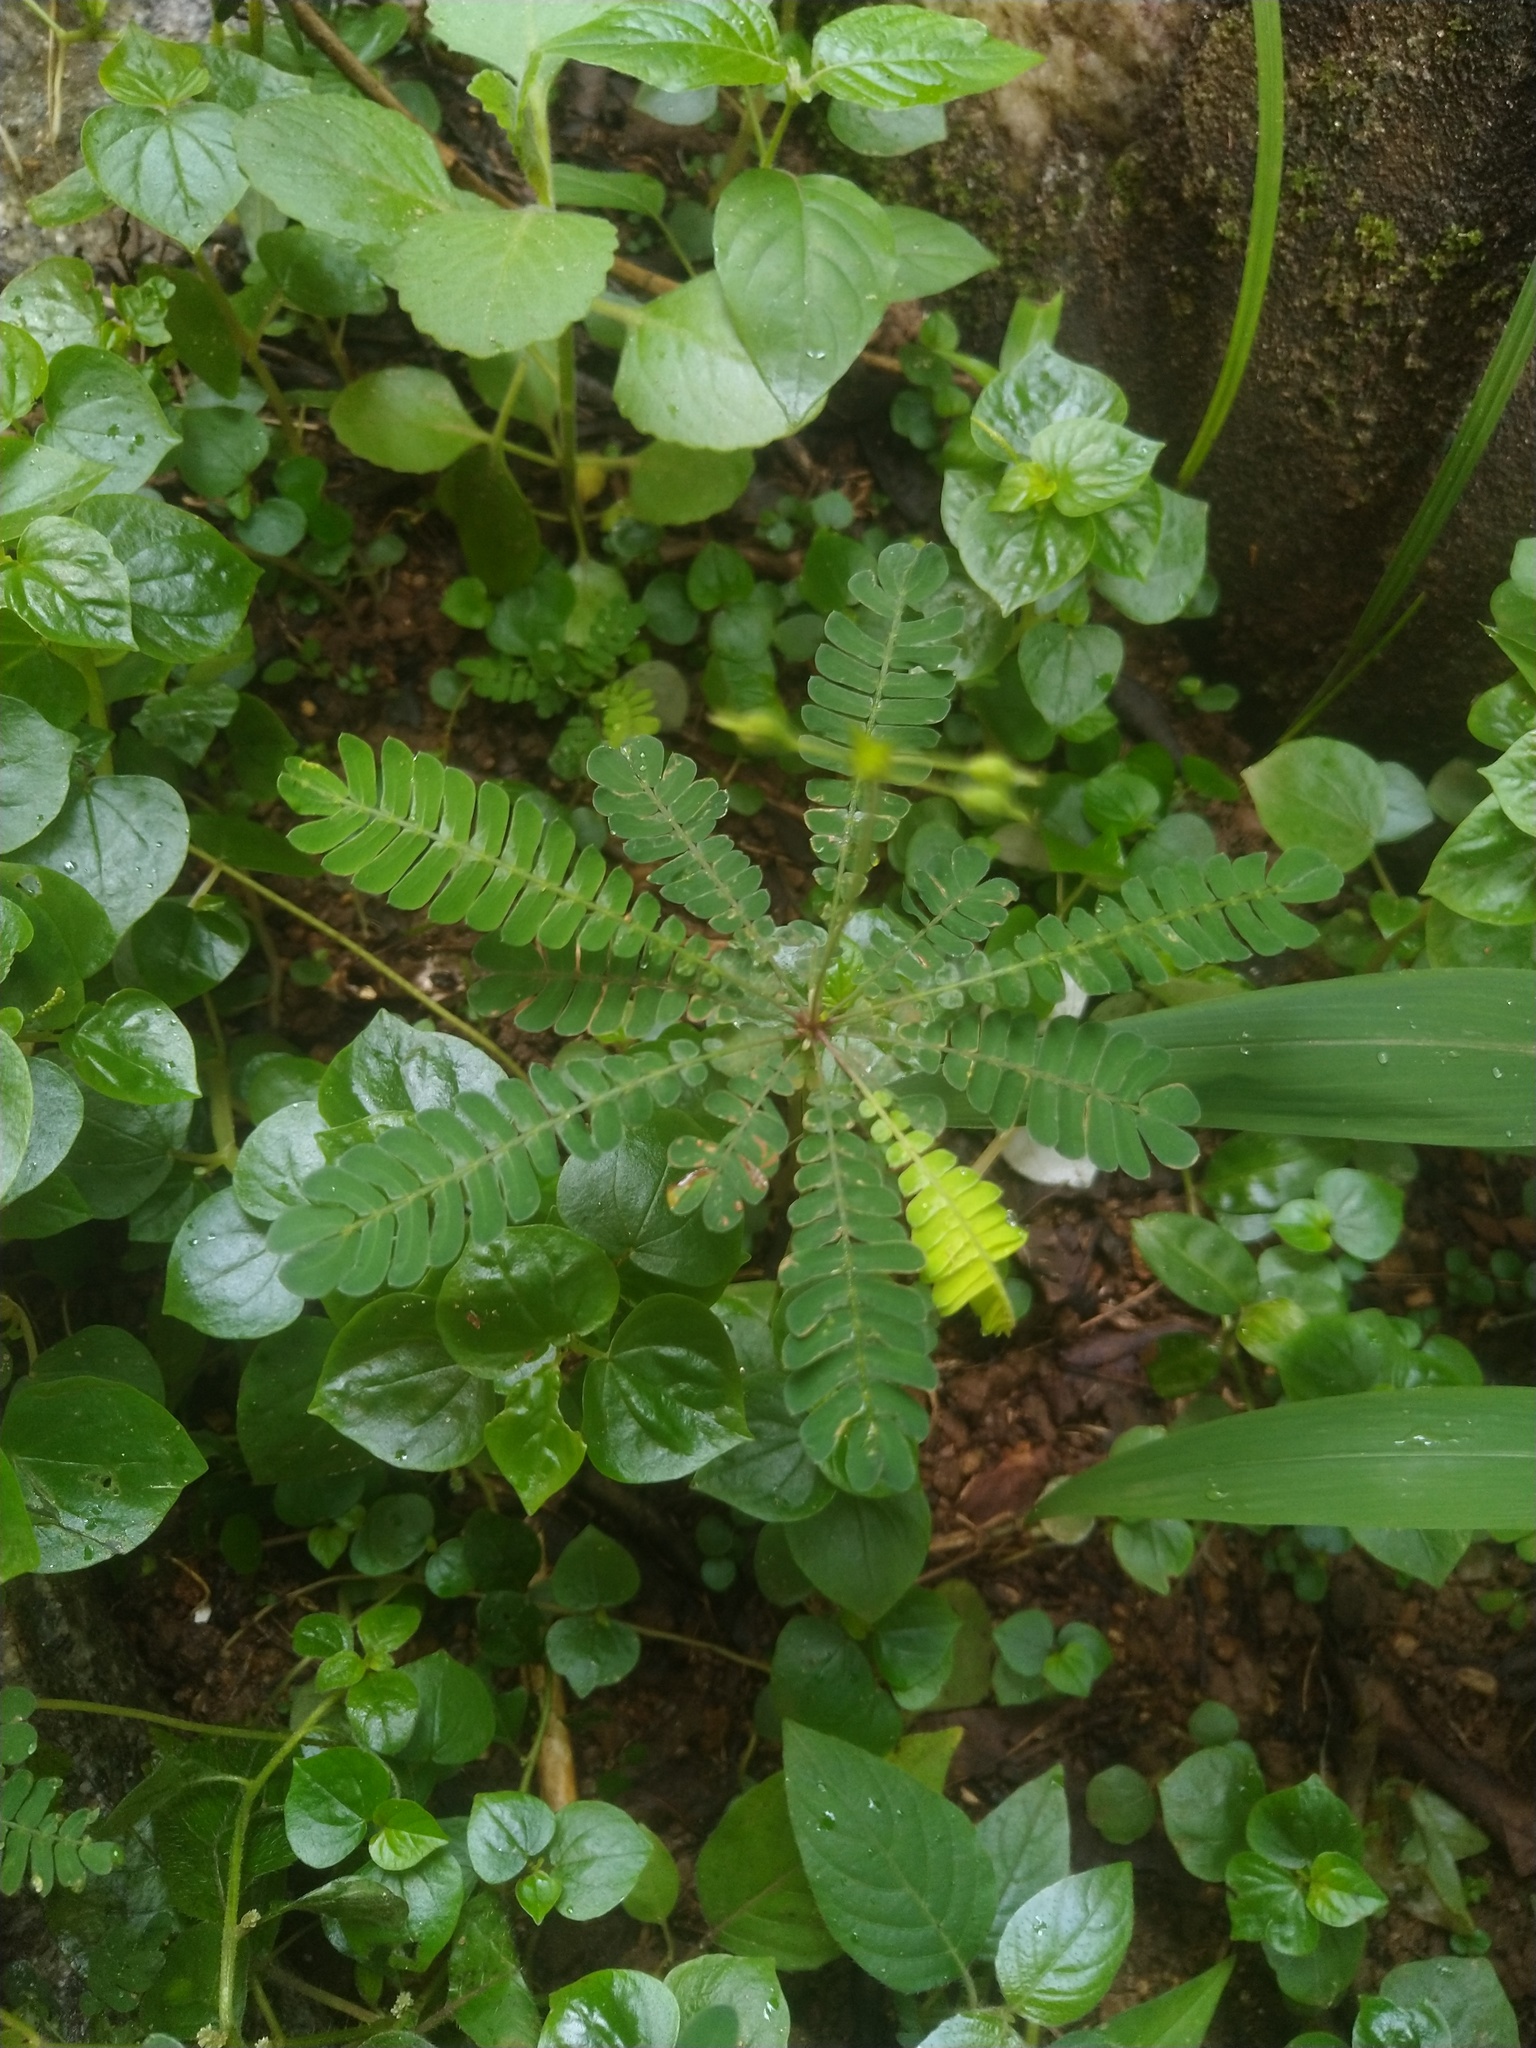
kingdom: Plantae
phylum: Tracheophyta
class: Magnoliopsida
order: Oxalidales
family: Oxalidaceae
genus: Biophytum
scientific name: Biophytum sensitivum
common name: Lifeplant
